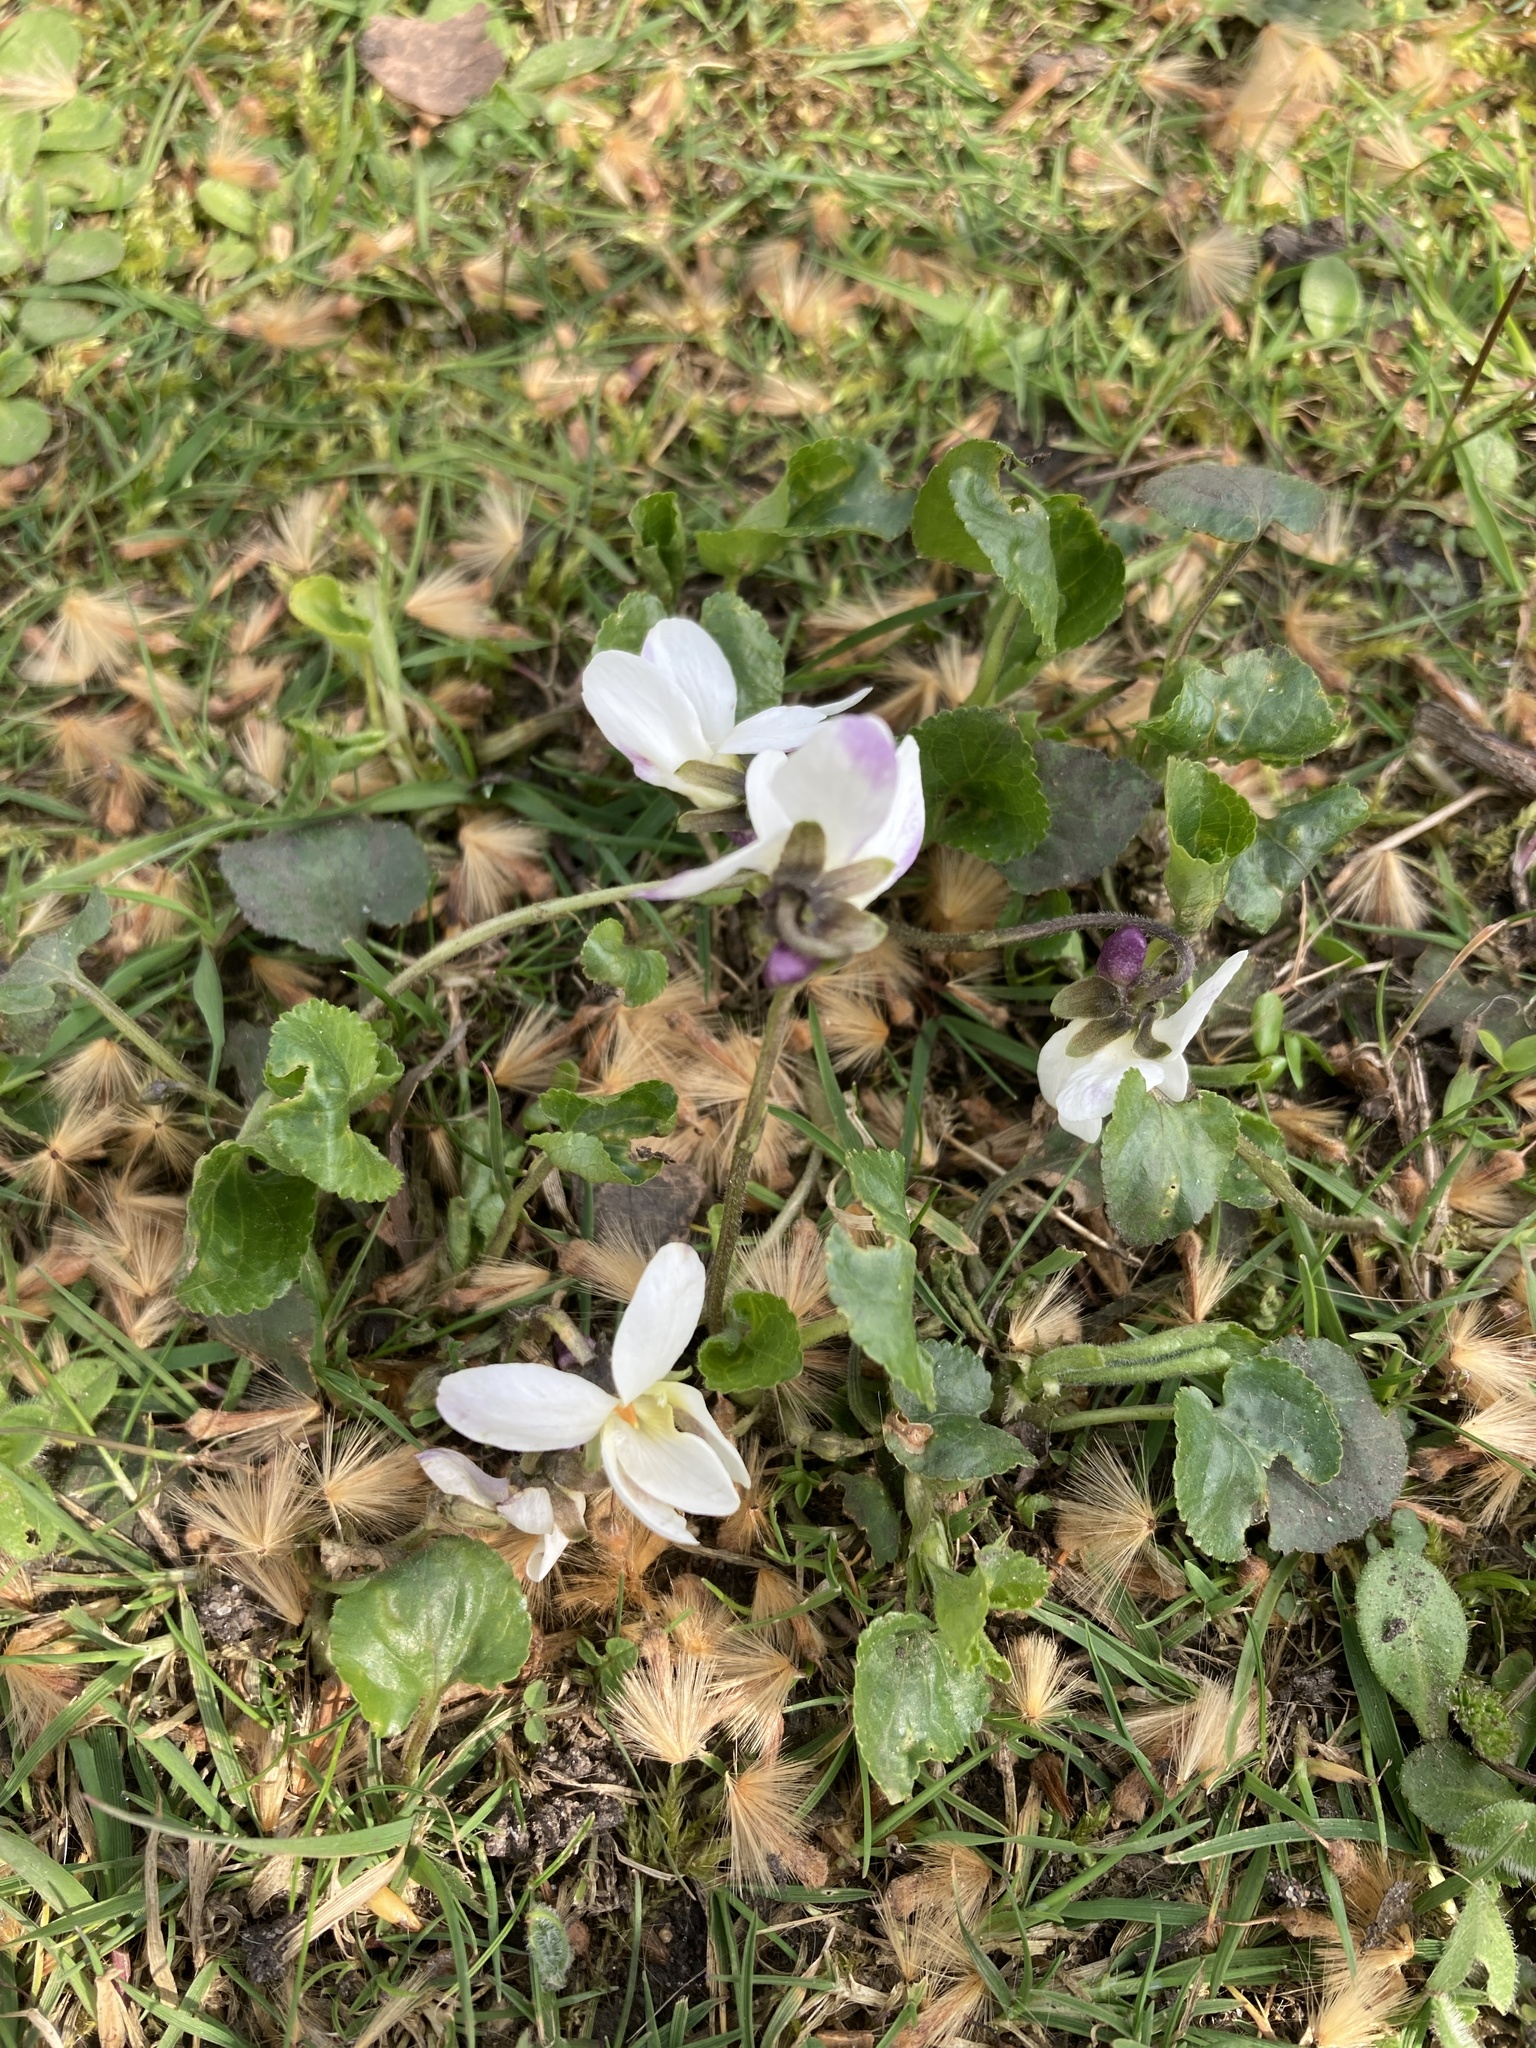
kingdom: Plantae
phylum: Tracheophyta
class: Magnoliopsida
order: Malpighiales
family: Violaceae
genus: Viola
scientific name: Viola odorata
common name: Sweet violet
